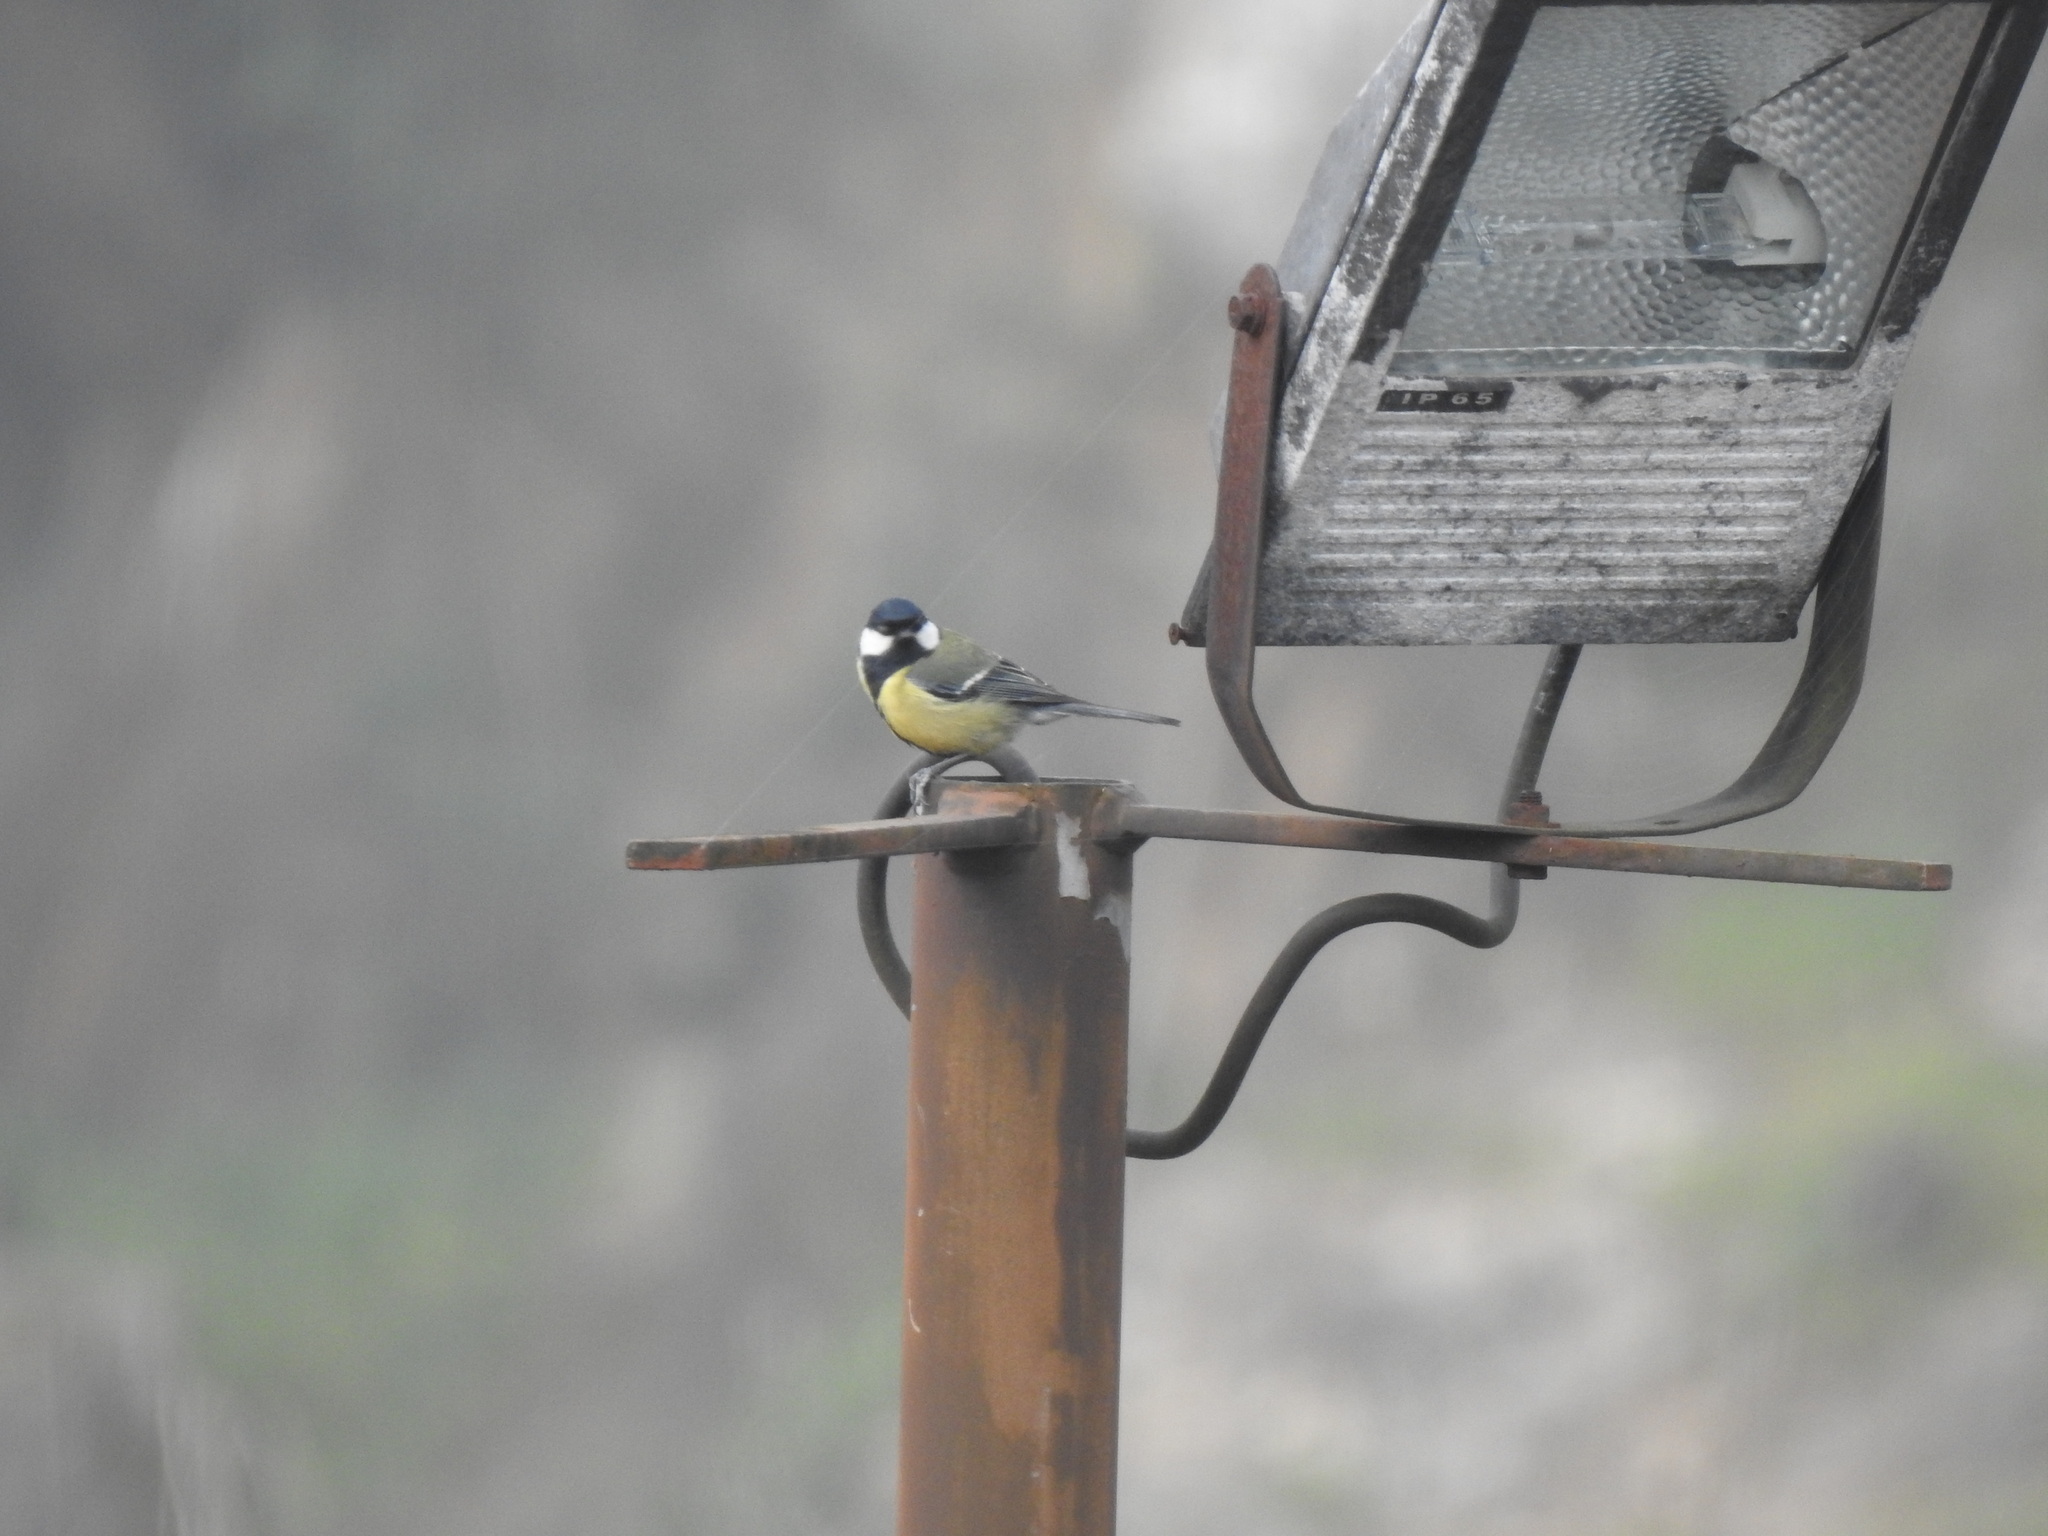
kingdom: Animalia
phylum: Chordata
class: Aves
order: Passeriformes
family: Paridae
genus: Parus
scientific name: Parus major
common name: Great tit
